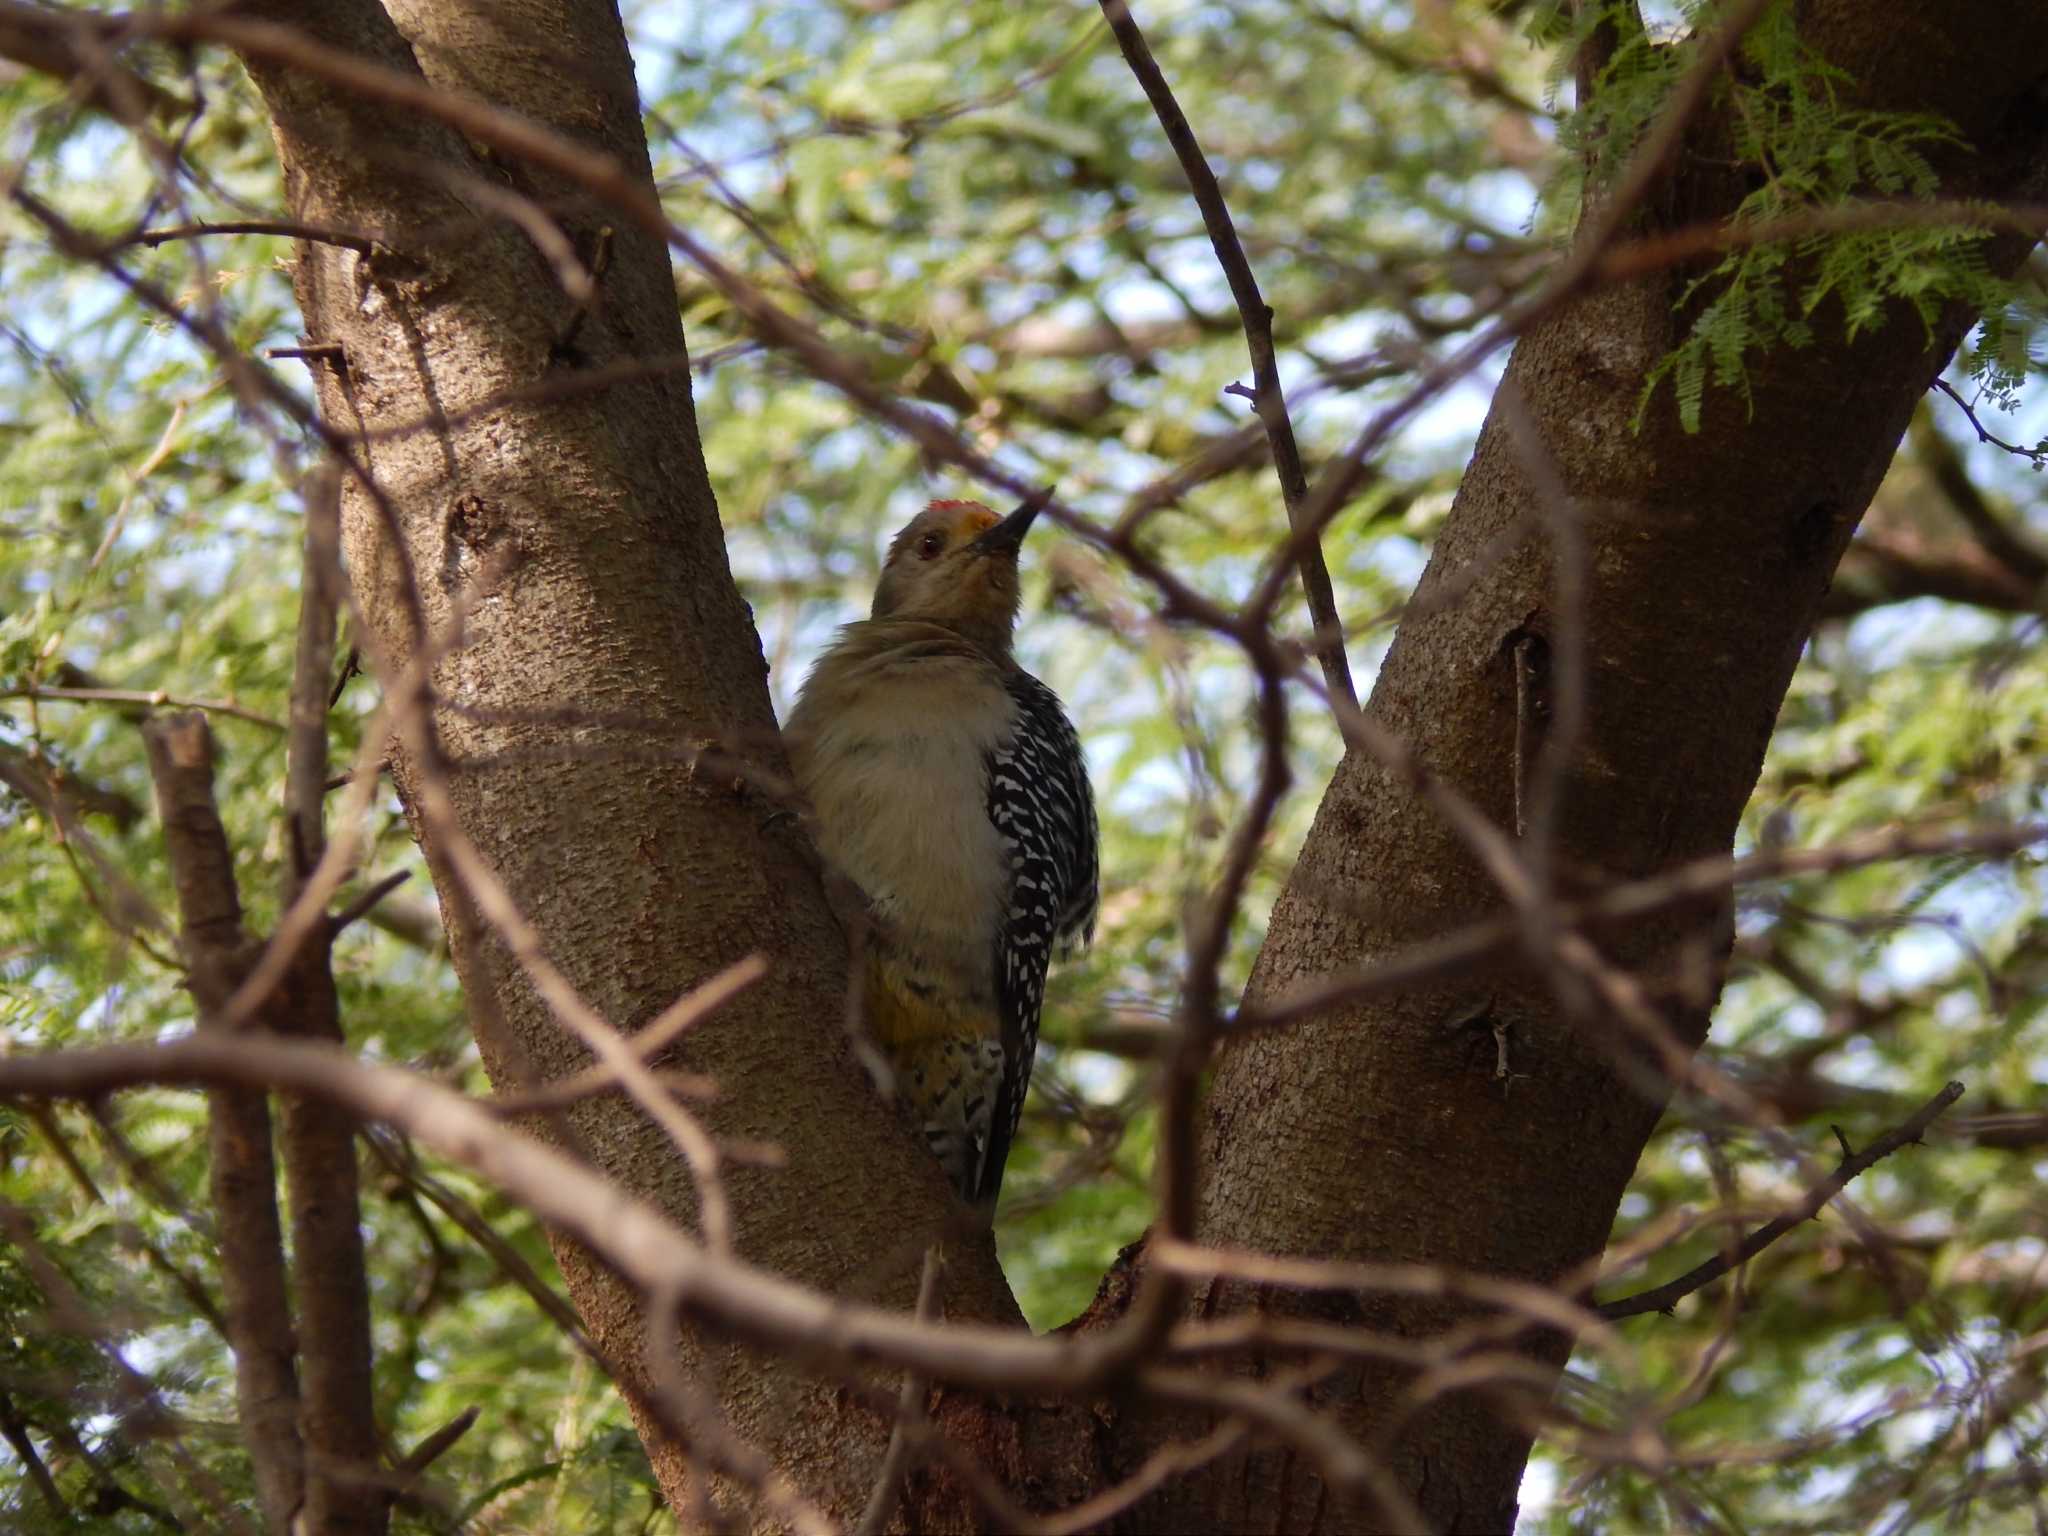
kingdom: Animalia
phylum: Chordata
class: Aves
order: Piciformes
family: Picidae
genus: Melanerpes
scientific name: Melanerpes aurifrons
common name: Golden-fronted woodpecker
